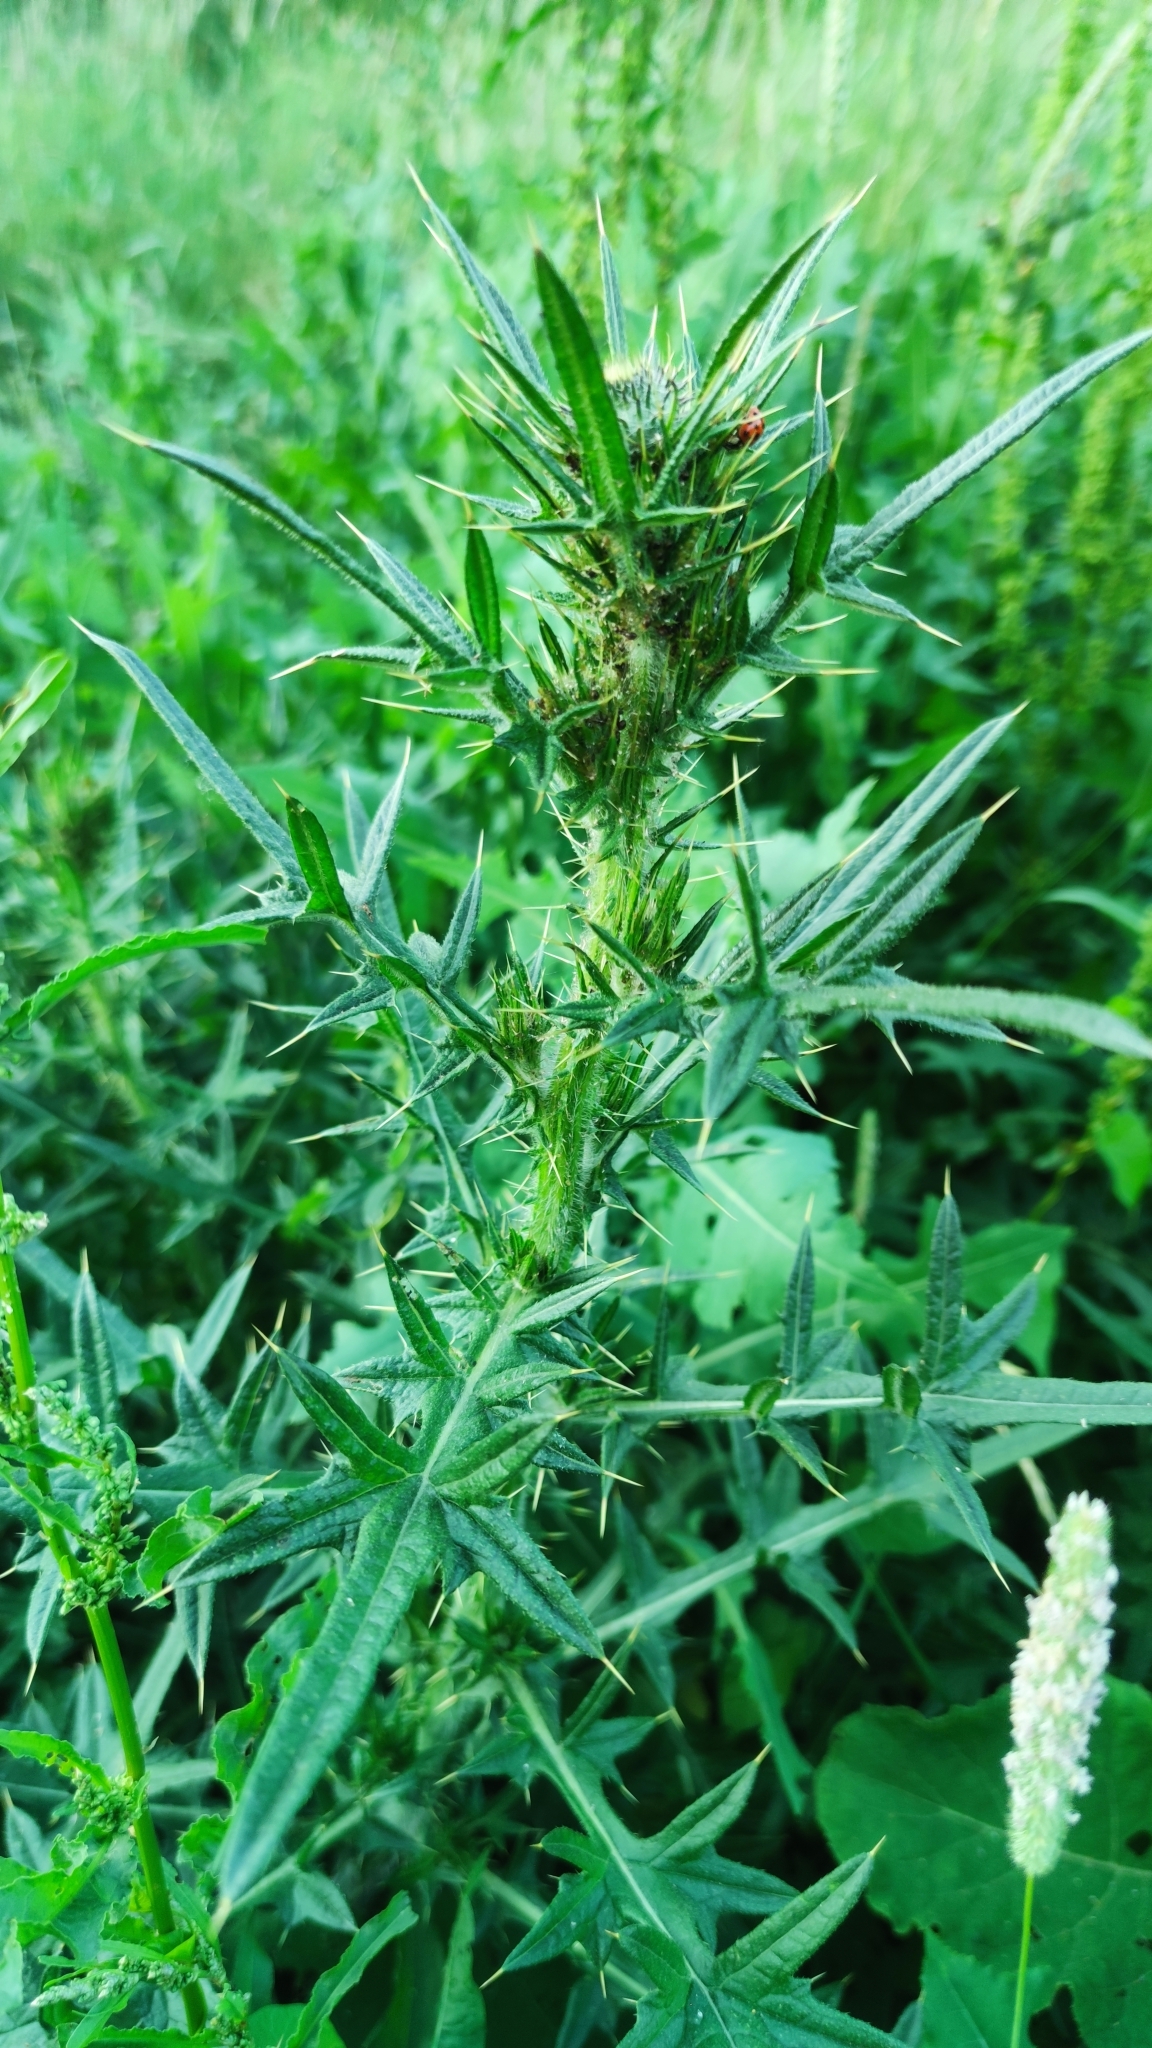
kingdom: Plantae
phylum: Tracheophyta
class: Magnoliopsida
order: Asterales
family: Asteraceae
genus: Cirsium
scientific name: Cirsium vulgare
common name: Bull thistle
